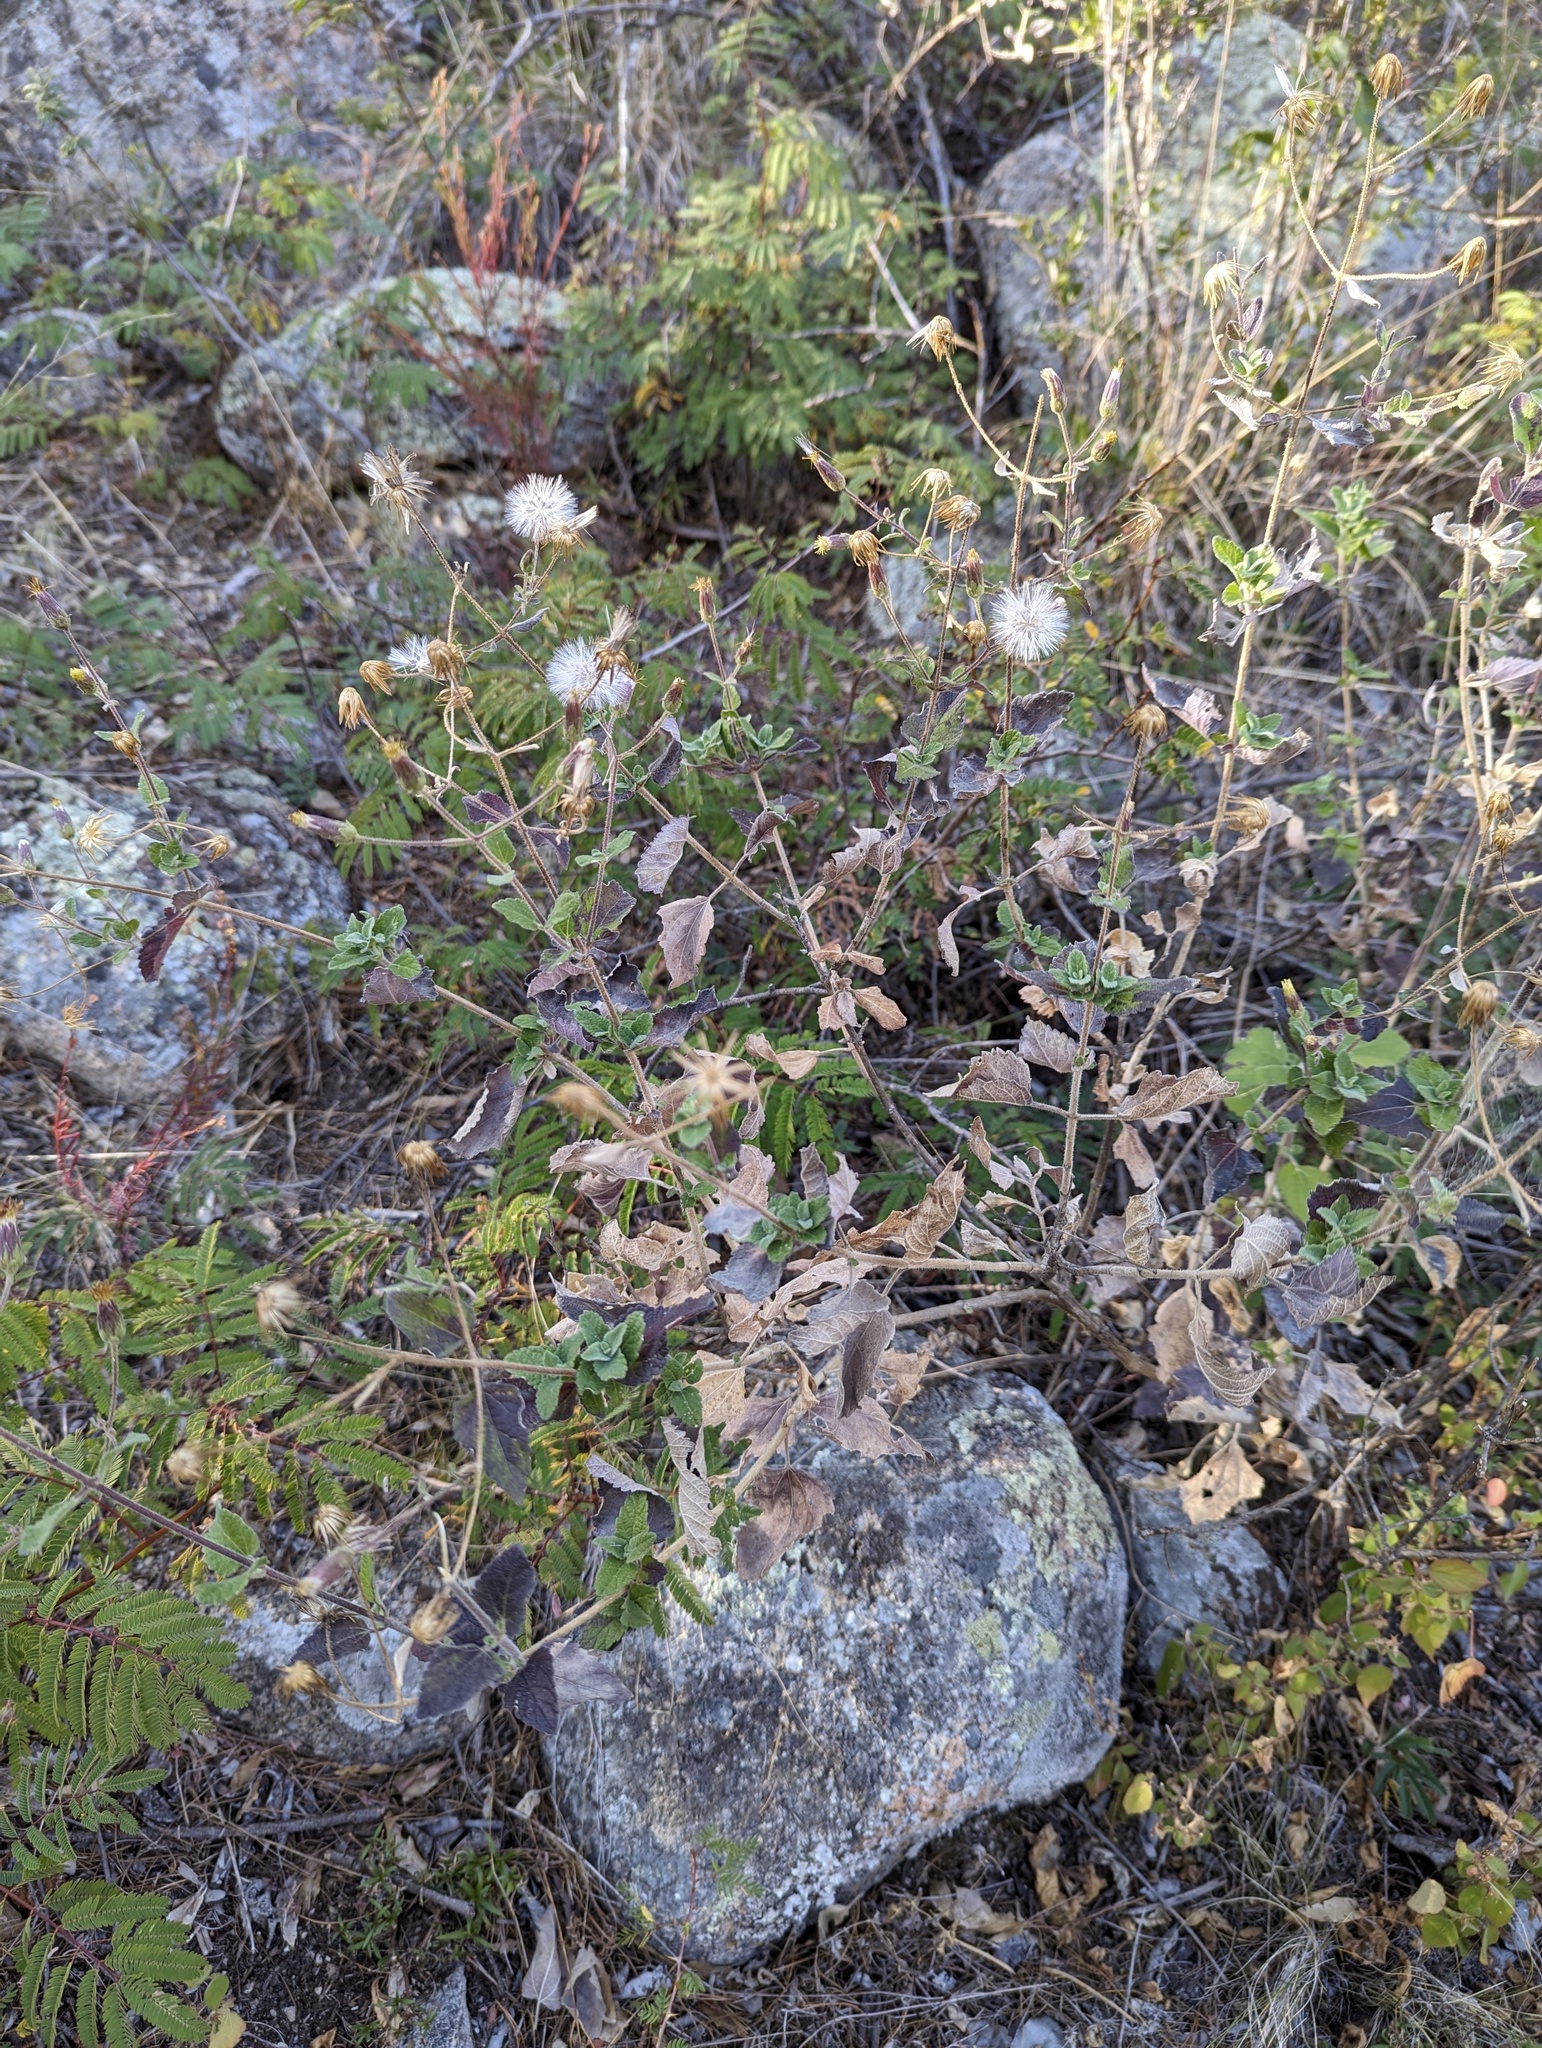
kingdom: Plantae
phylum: Tracheophyta
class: Magnoliopsida
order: Asterales
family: Asteraceae
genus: Brickellia
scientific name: Brickellia peninsularis
